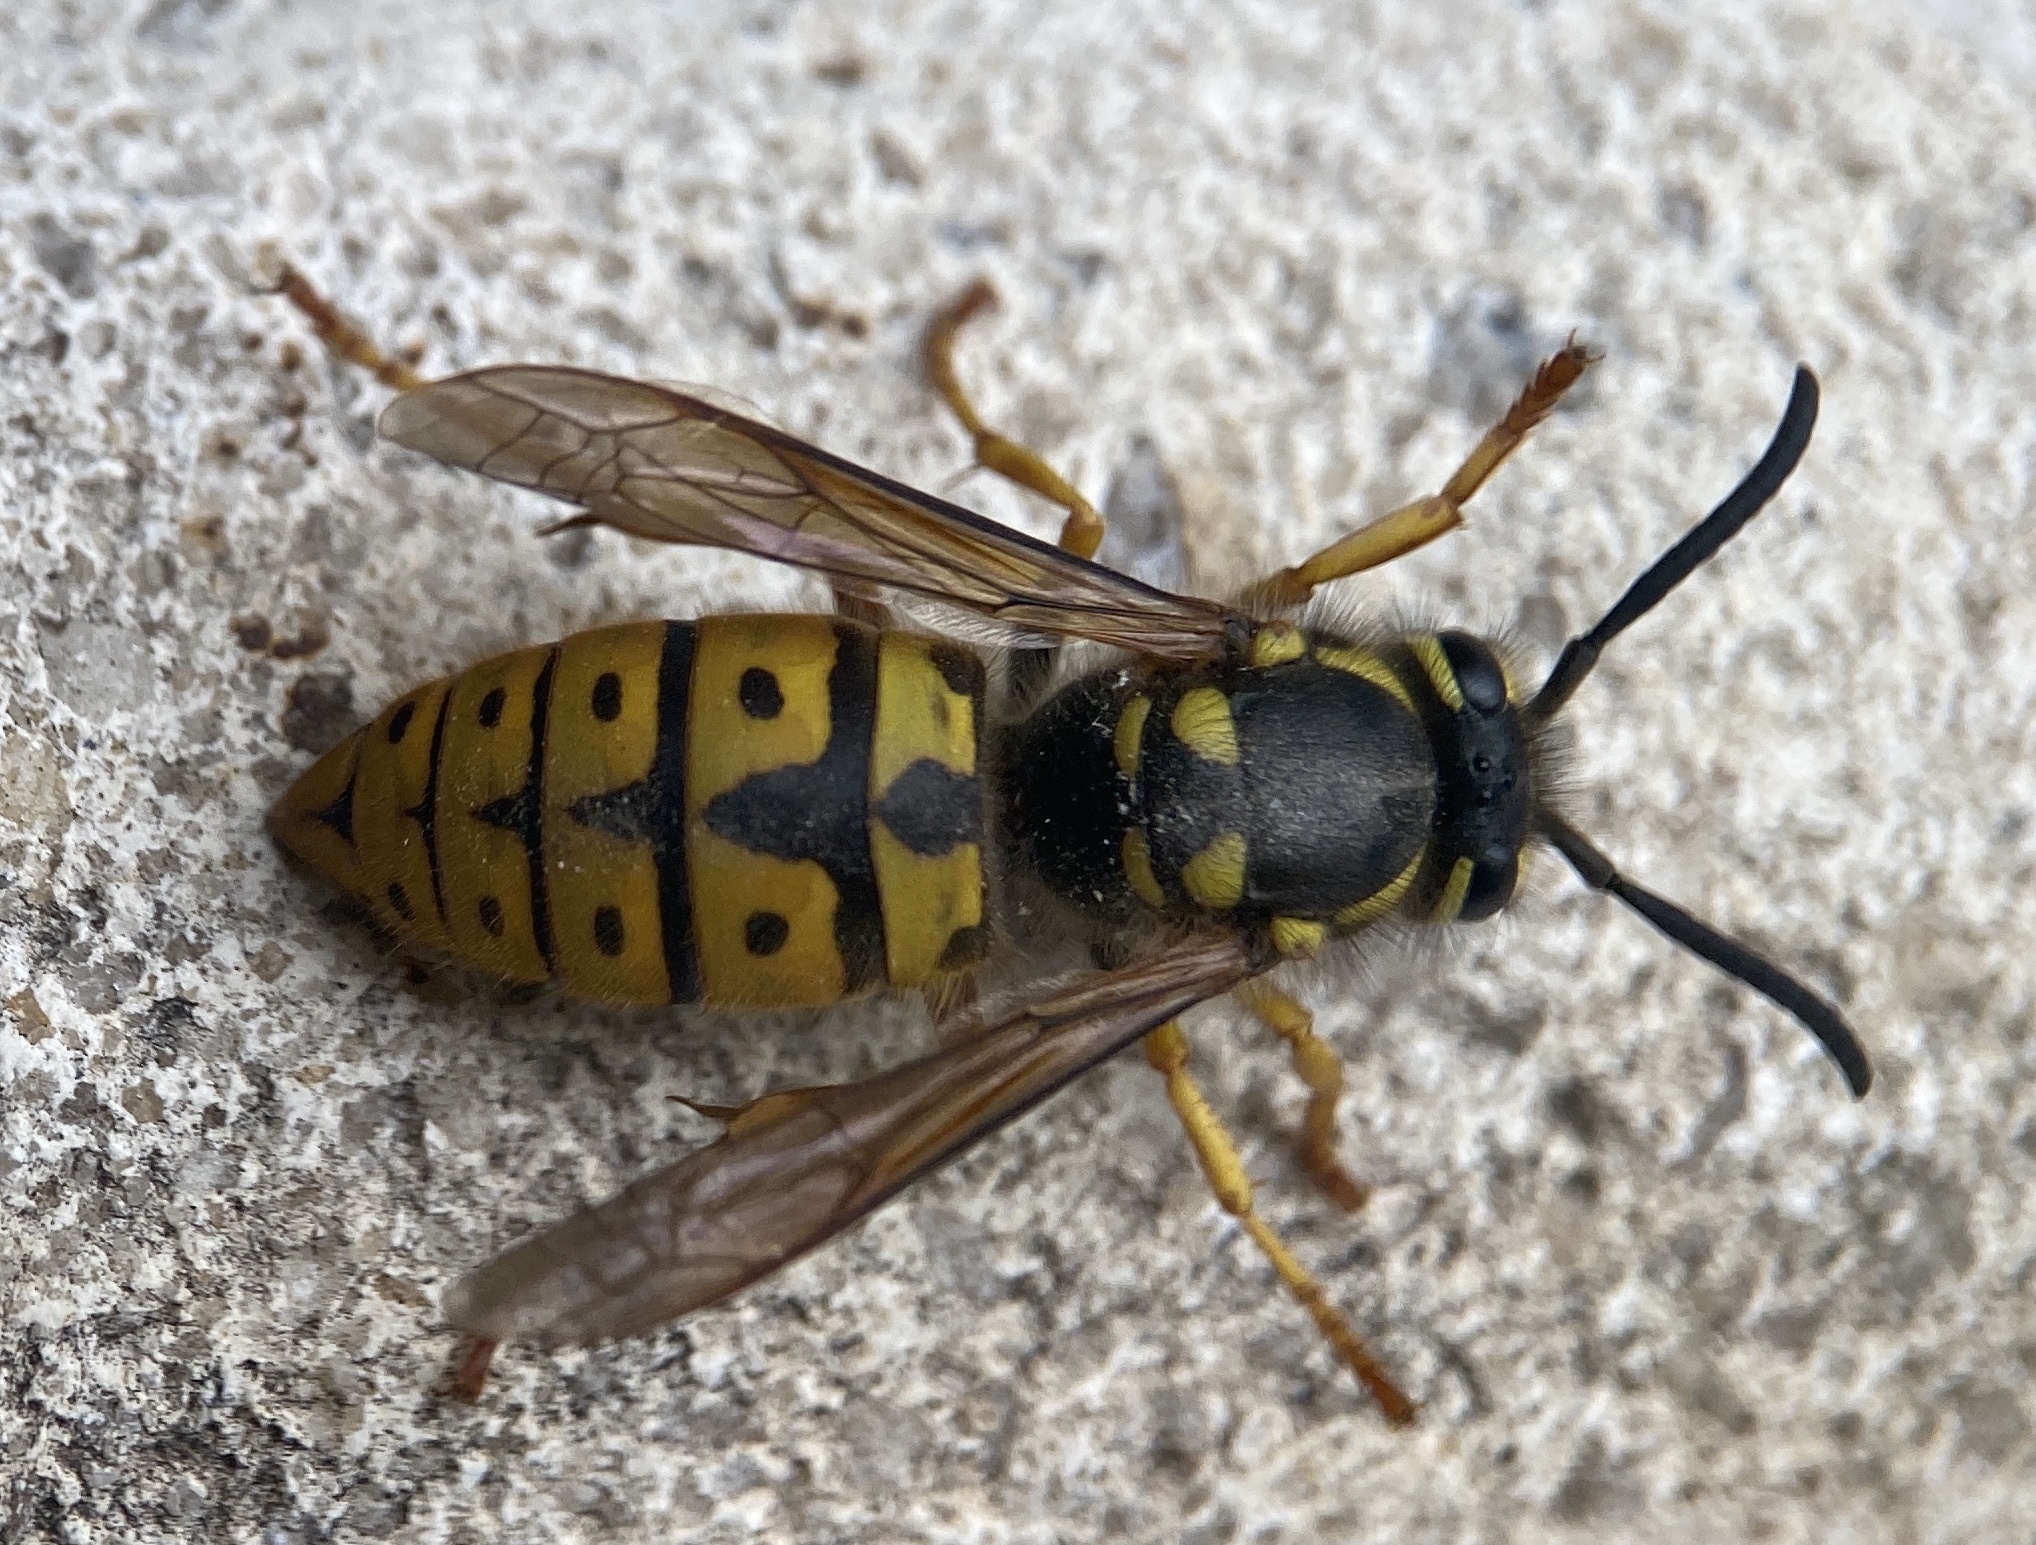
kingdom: Animalia
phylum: Arthropoda
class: Insecta
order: Hymenoptera
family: Vespidae
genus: Vespula
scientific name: Vespula germanica
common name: German wasp
